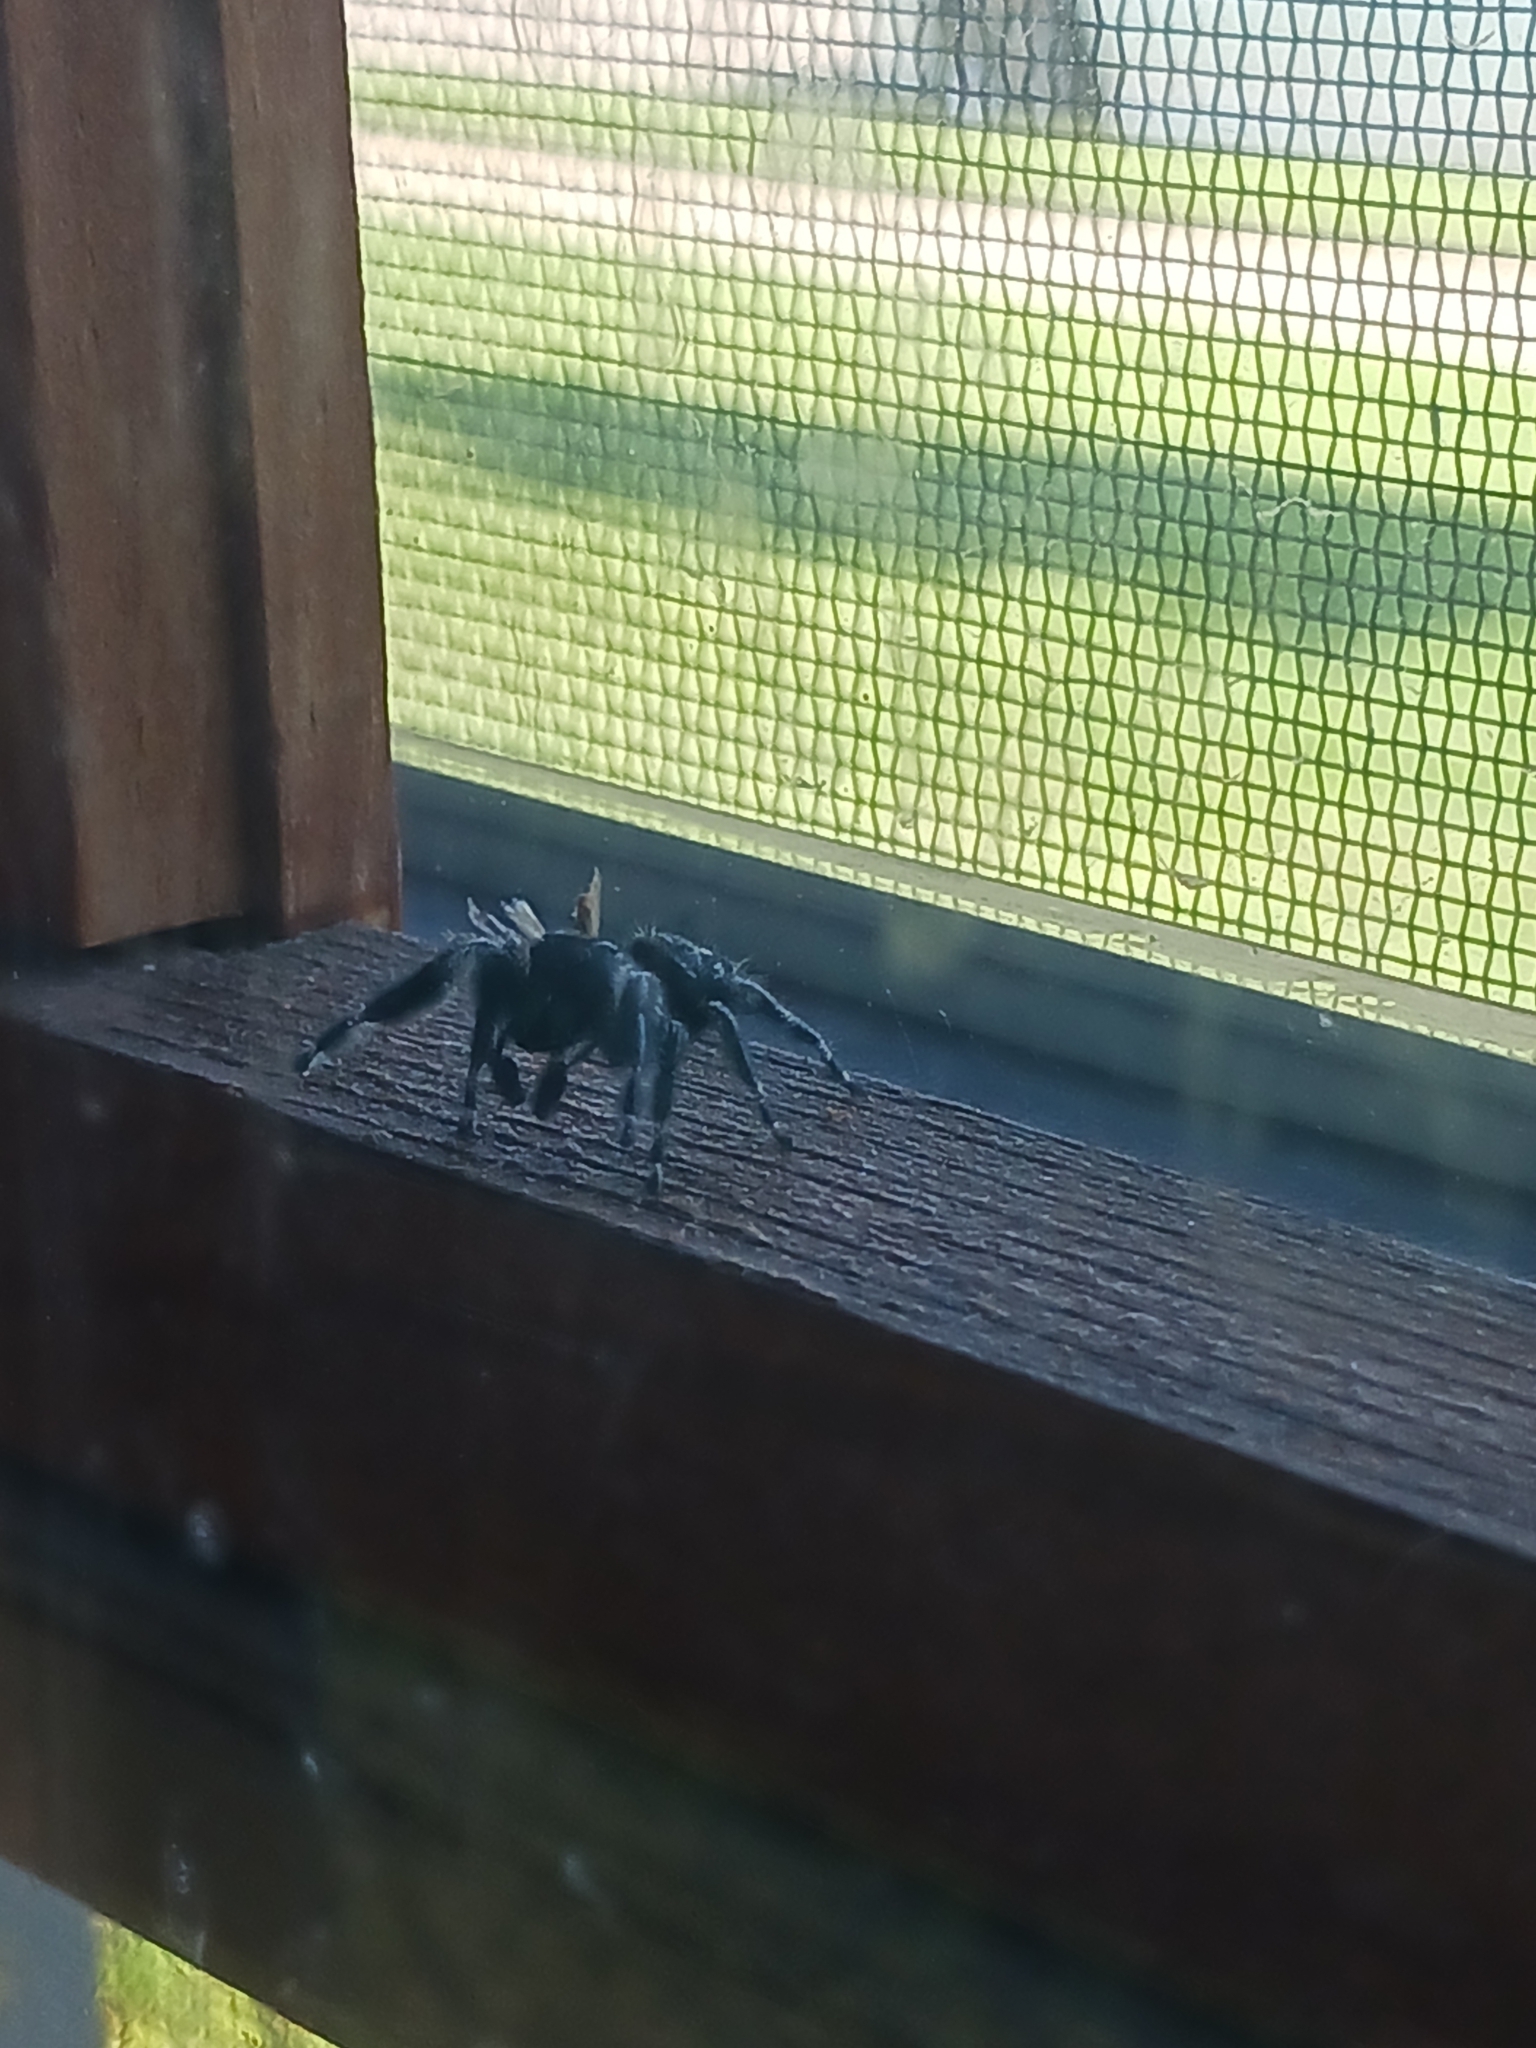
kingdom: Animalia
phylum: Arthropoda
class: Arachnida
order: Araneae
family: Salticidae
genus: Phidippus
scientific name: Phidippus audax
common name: Bold jumper
